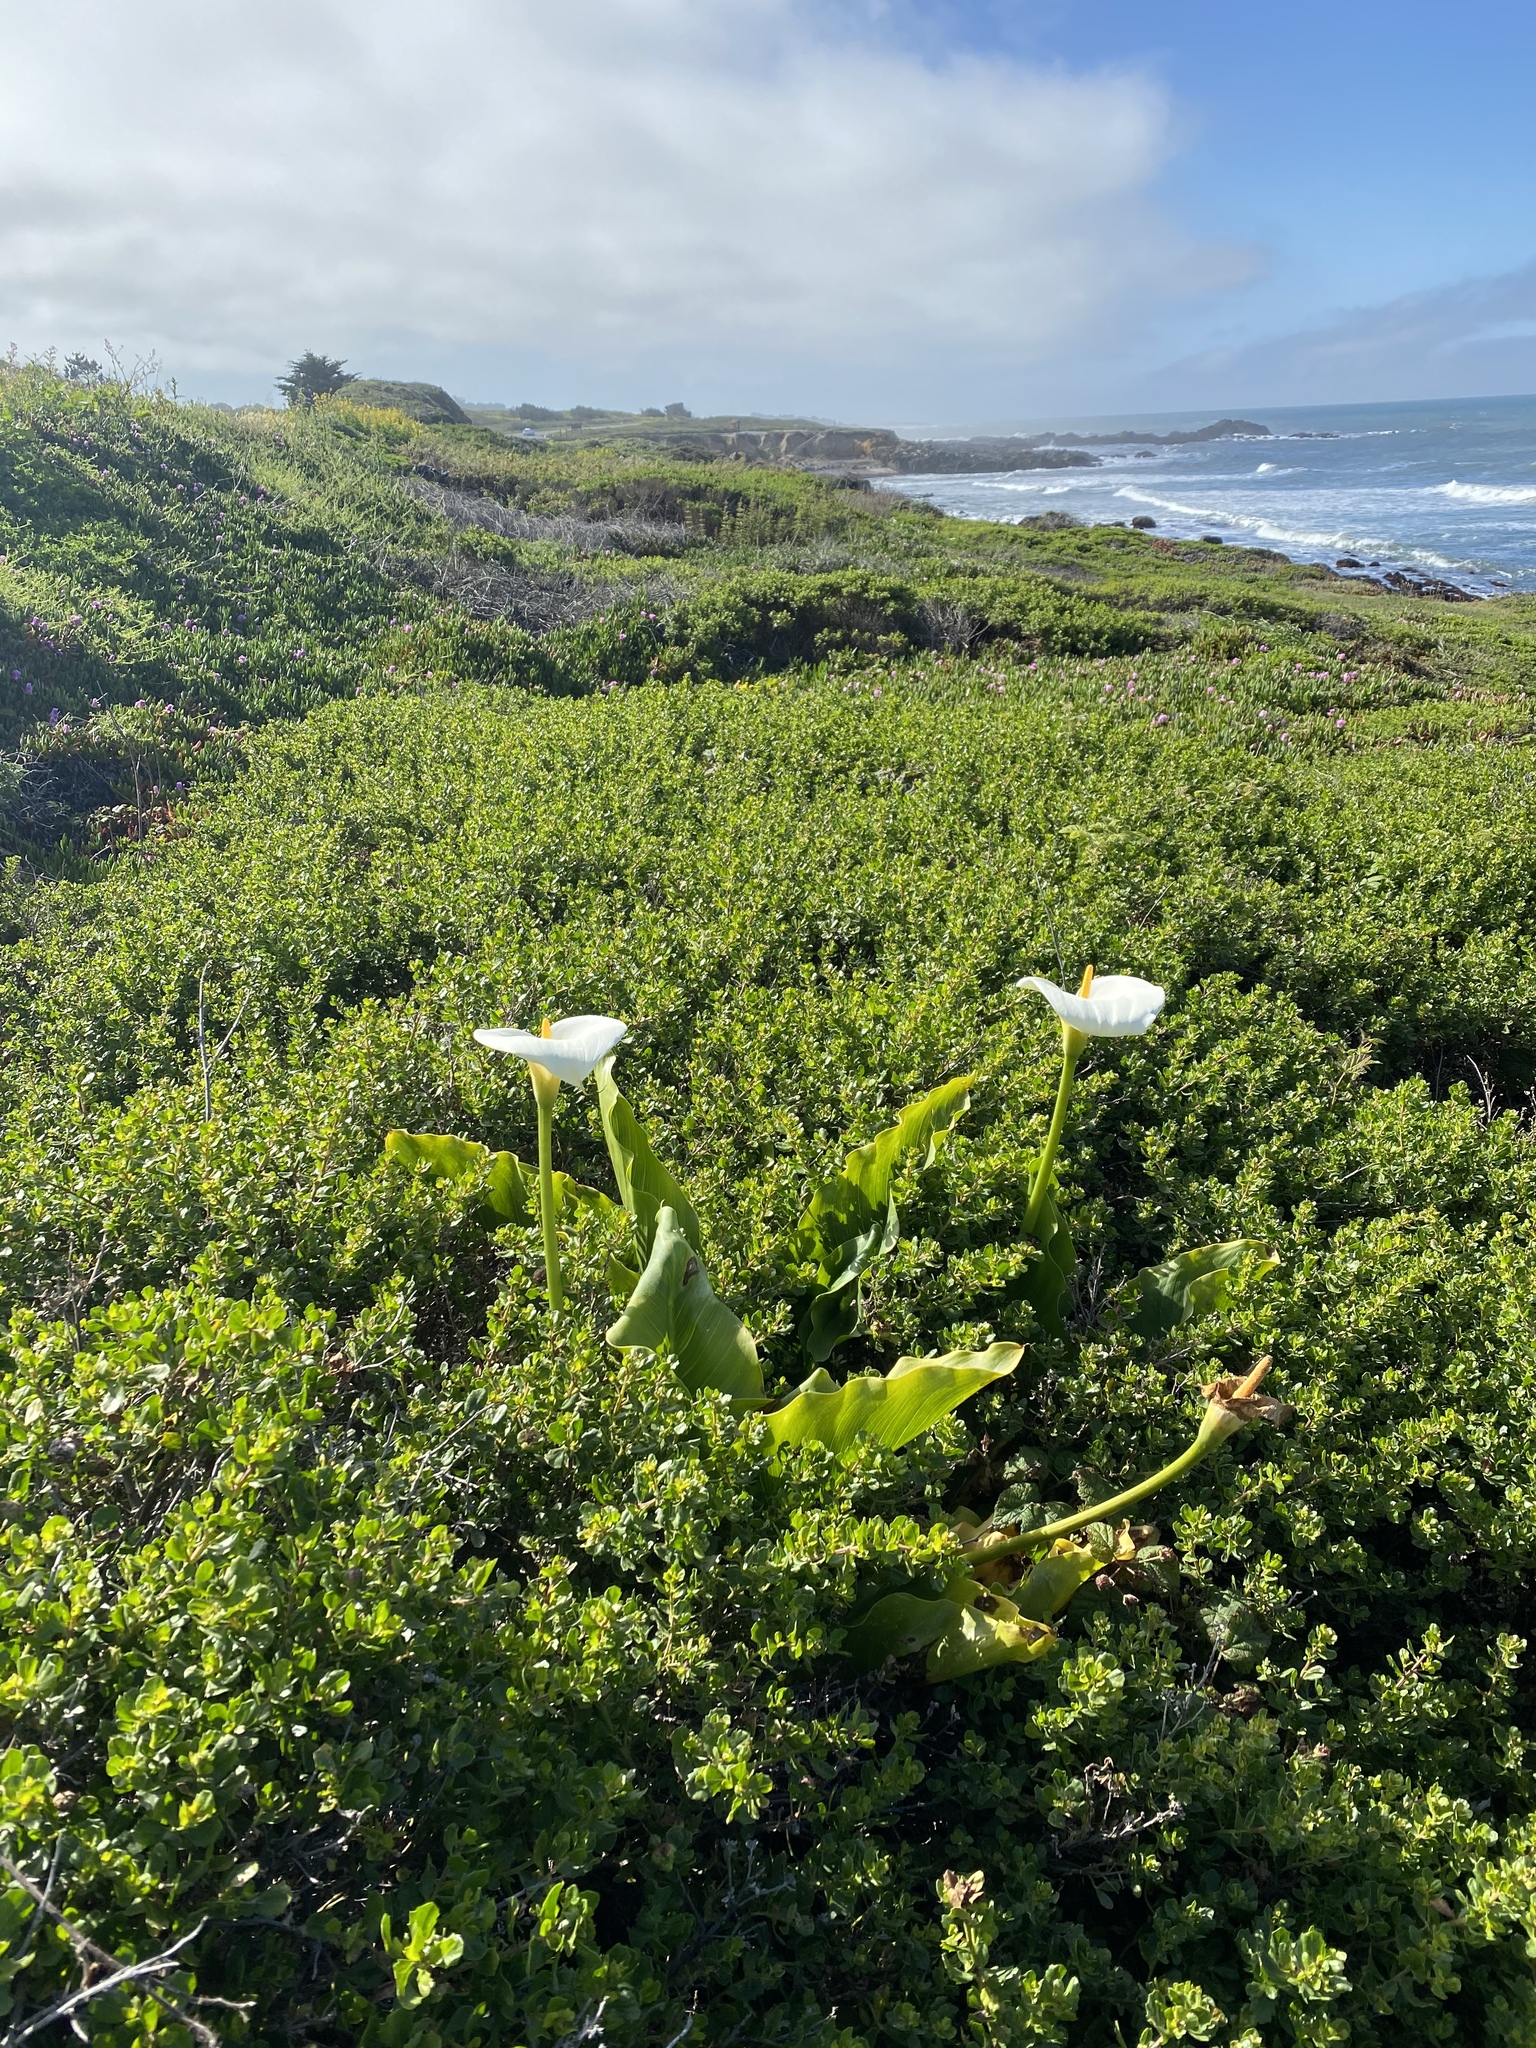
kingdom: Plantae
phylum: Tracheophyta
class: Liliopsida
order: Alismatales
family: Araceae
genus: Zantedeschia
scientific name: Zantedeschia aethiopica
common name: Altar-lily
